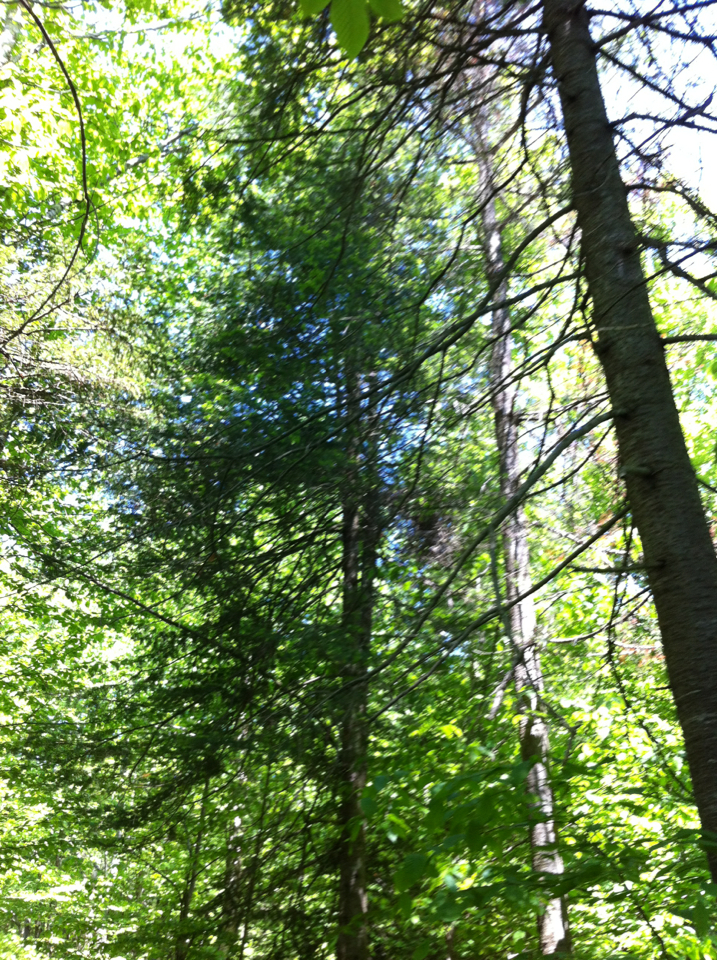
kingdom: Plantae
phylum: Tracheophyta
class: Pinopsida
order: Pinales
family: Pinaceae
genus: Picea
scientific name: Picea rubens
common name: Red spruce
